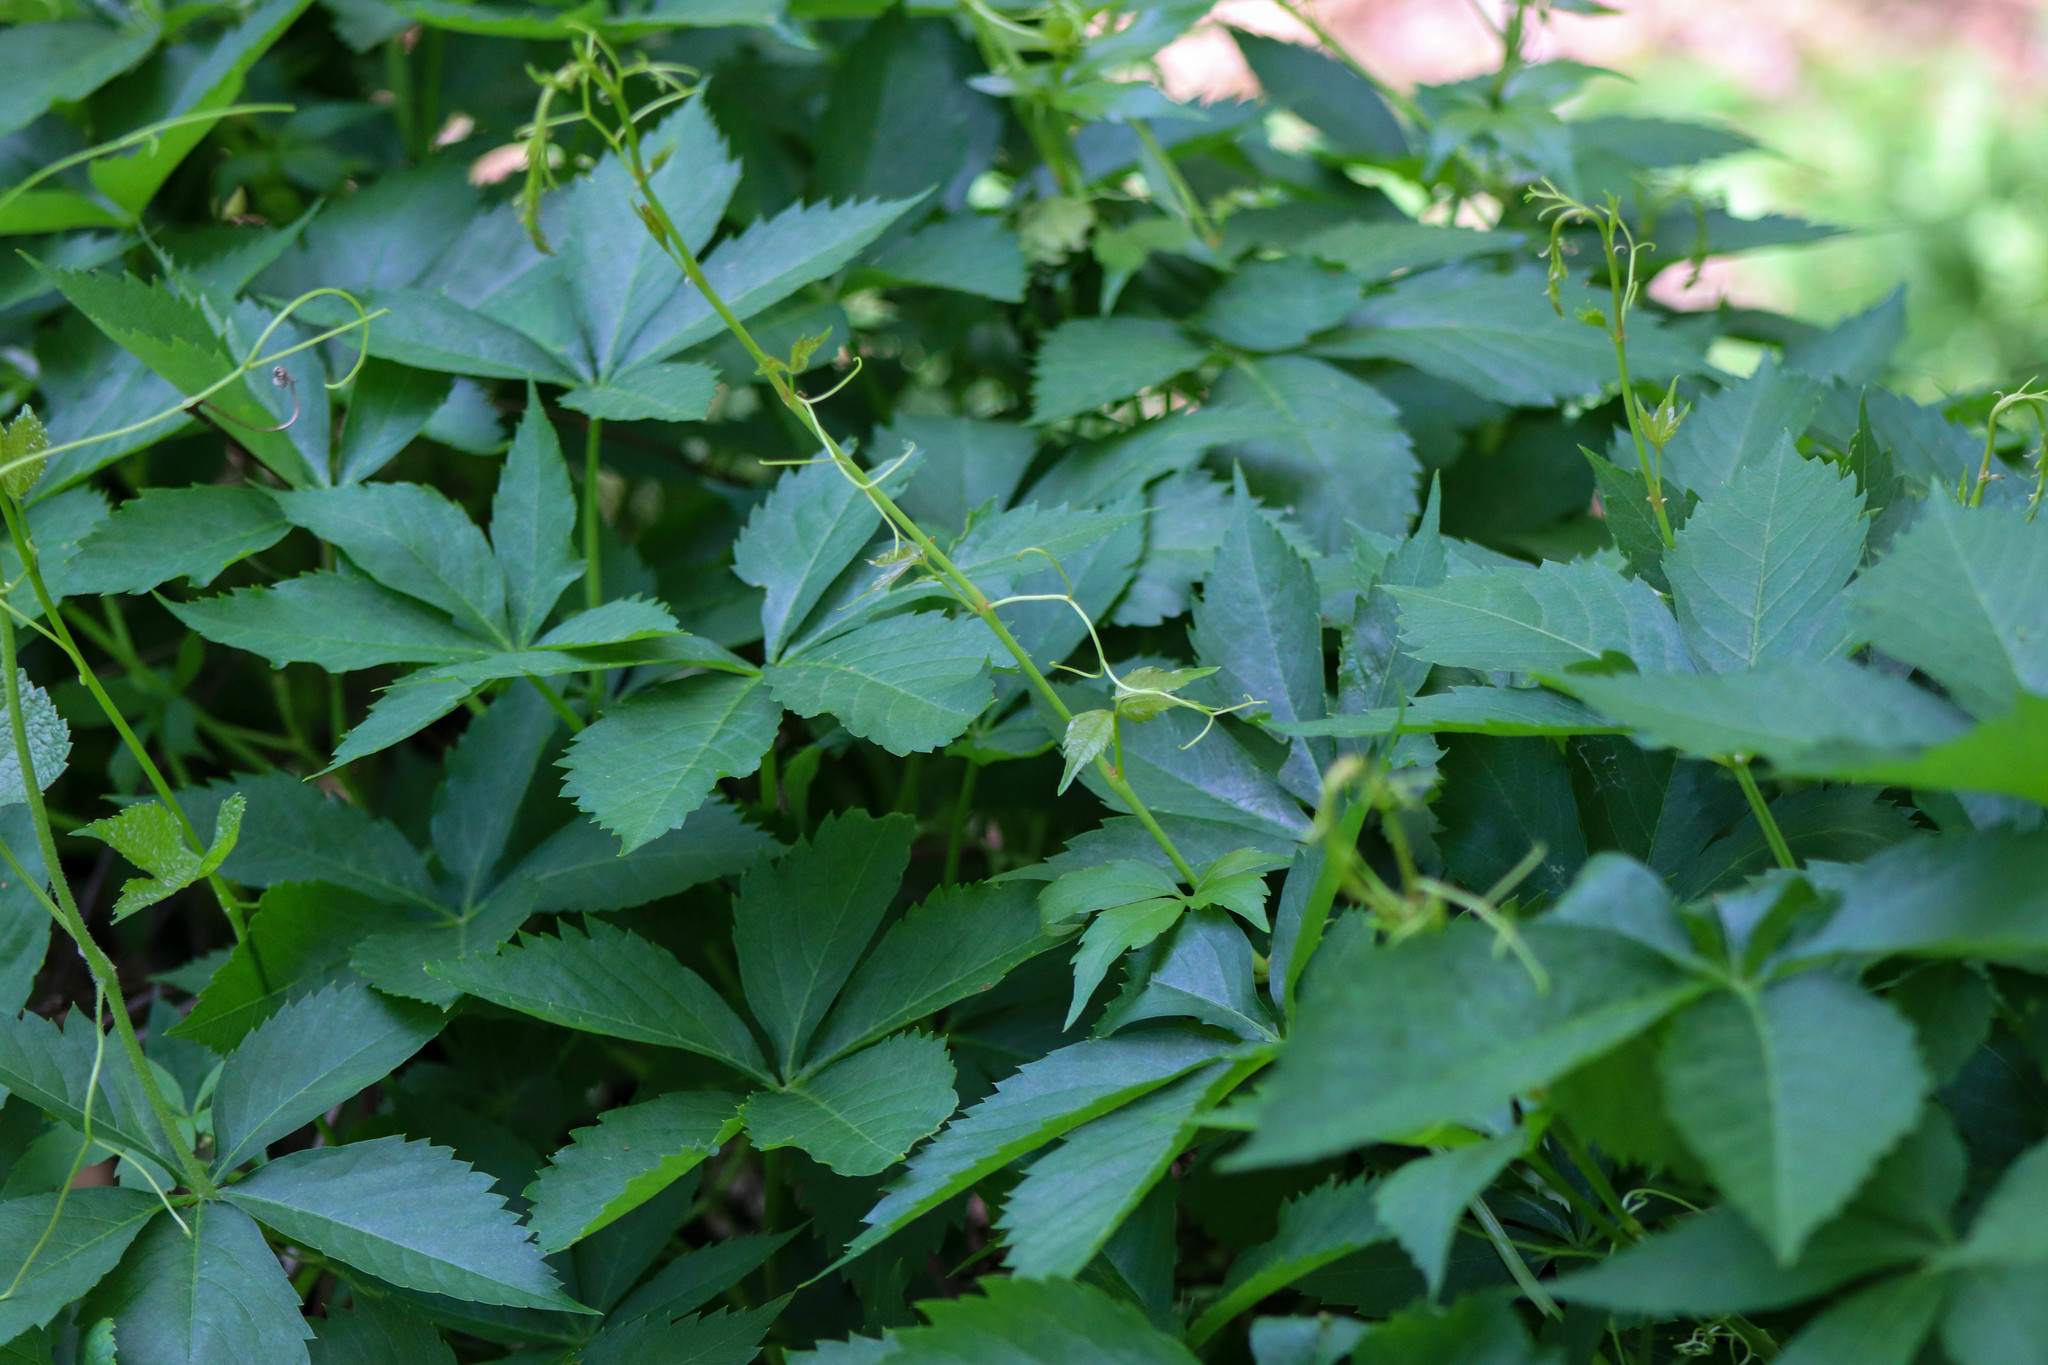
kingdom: Plantae
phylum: Tracheophyta
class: Magnoliopsida
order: Vitales
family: Vitaceae
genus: Parthenocissus
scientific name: Parthenocissus quinquefolia
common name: Virginia-creeper
